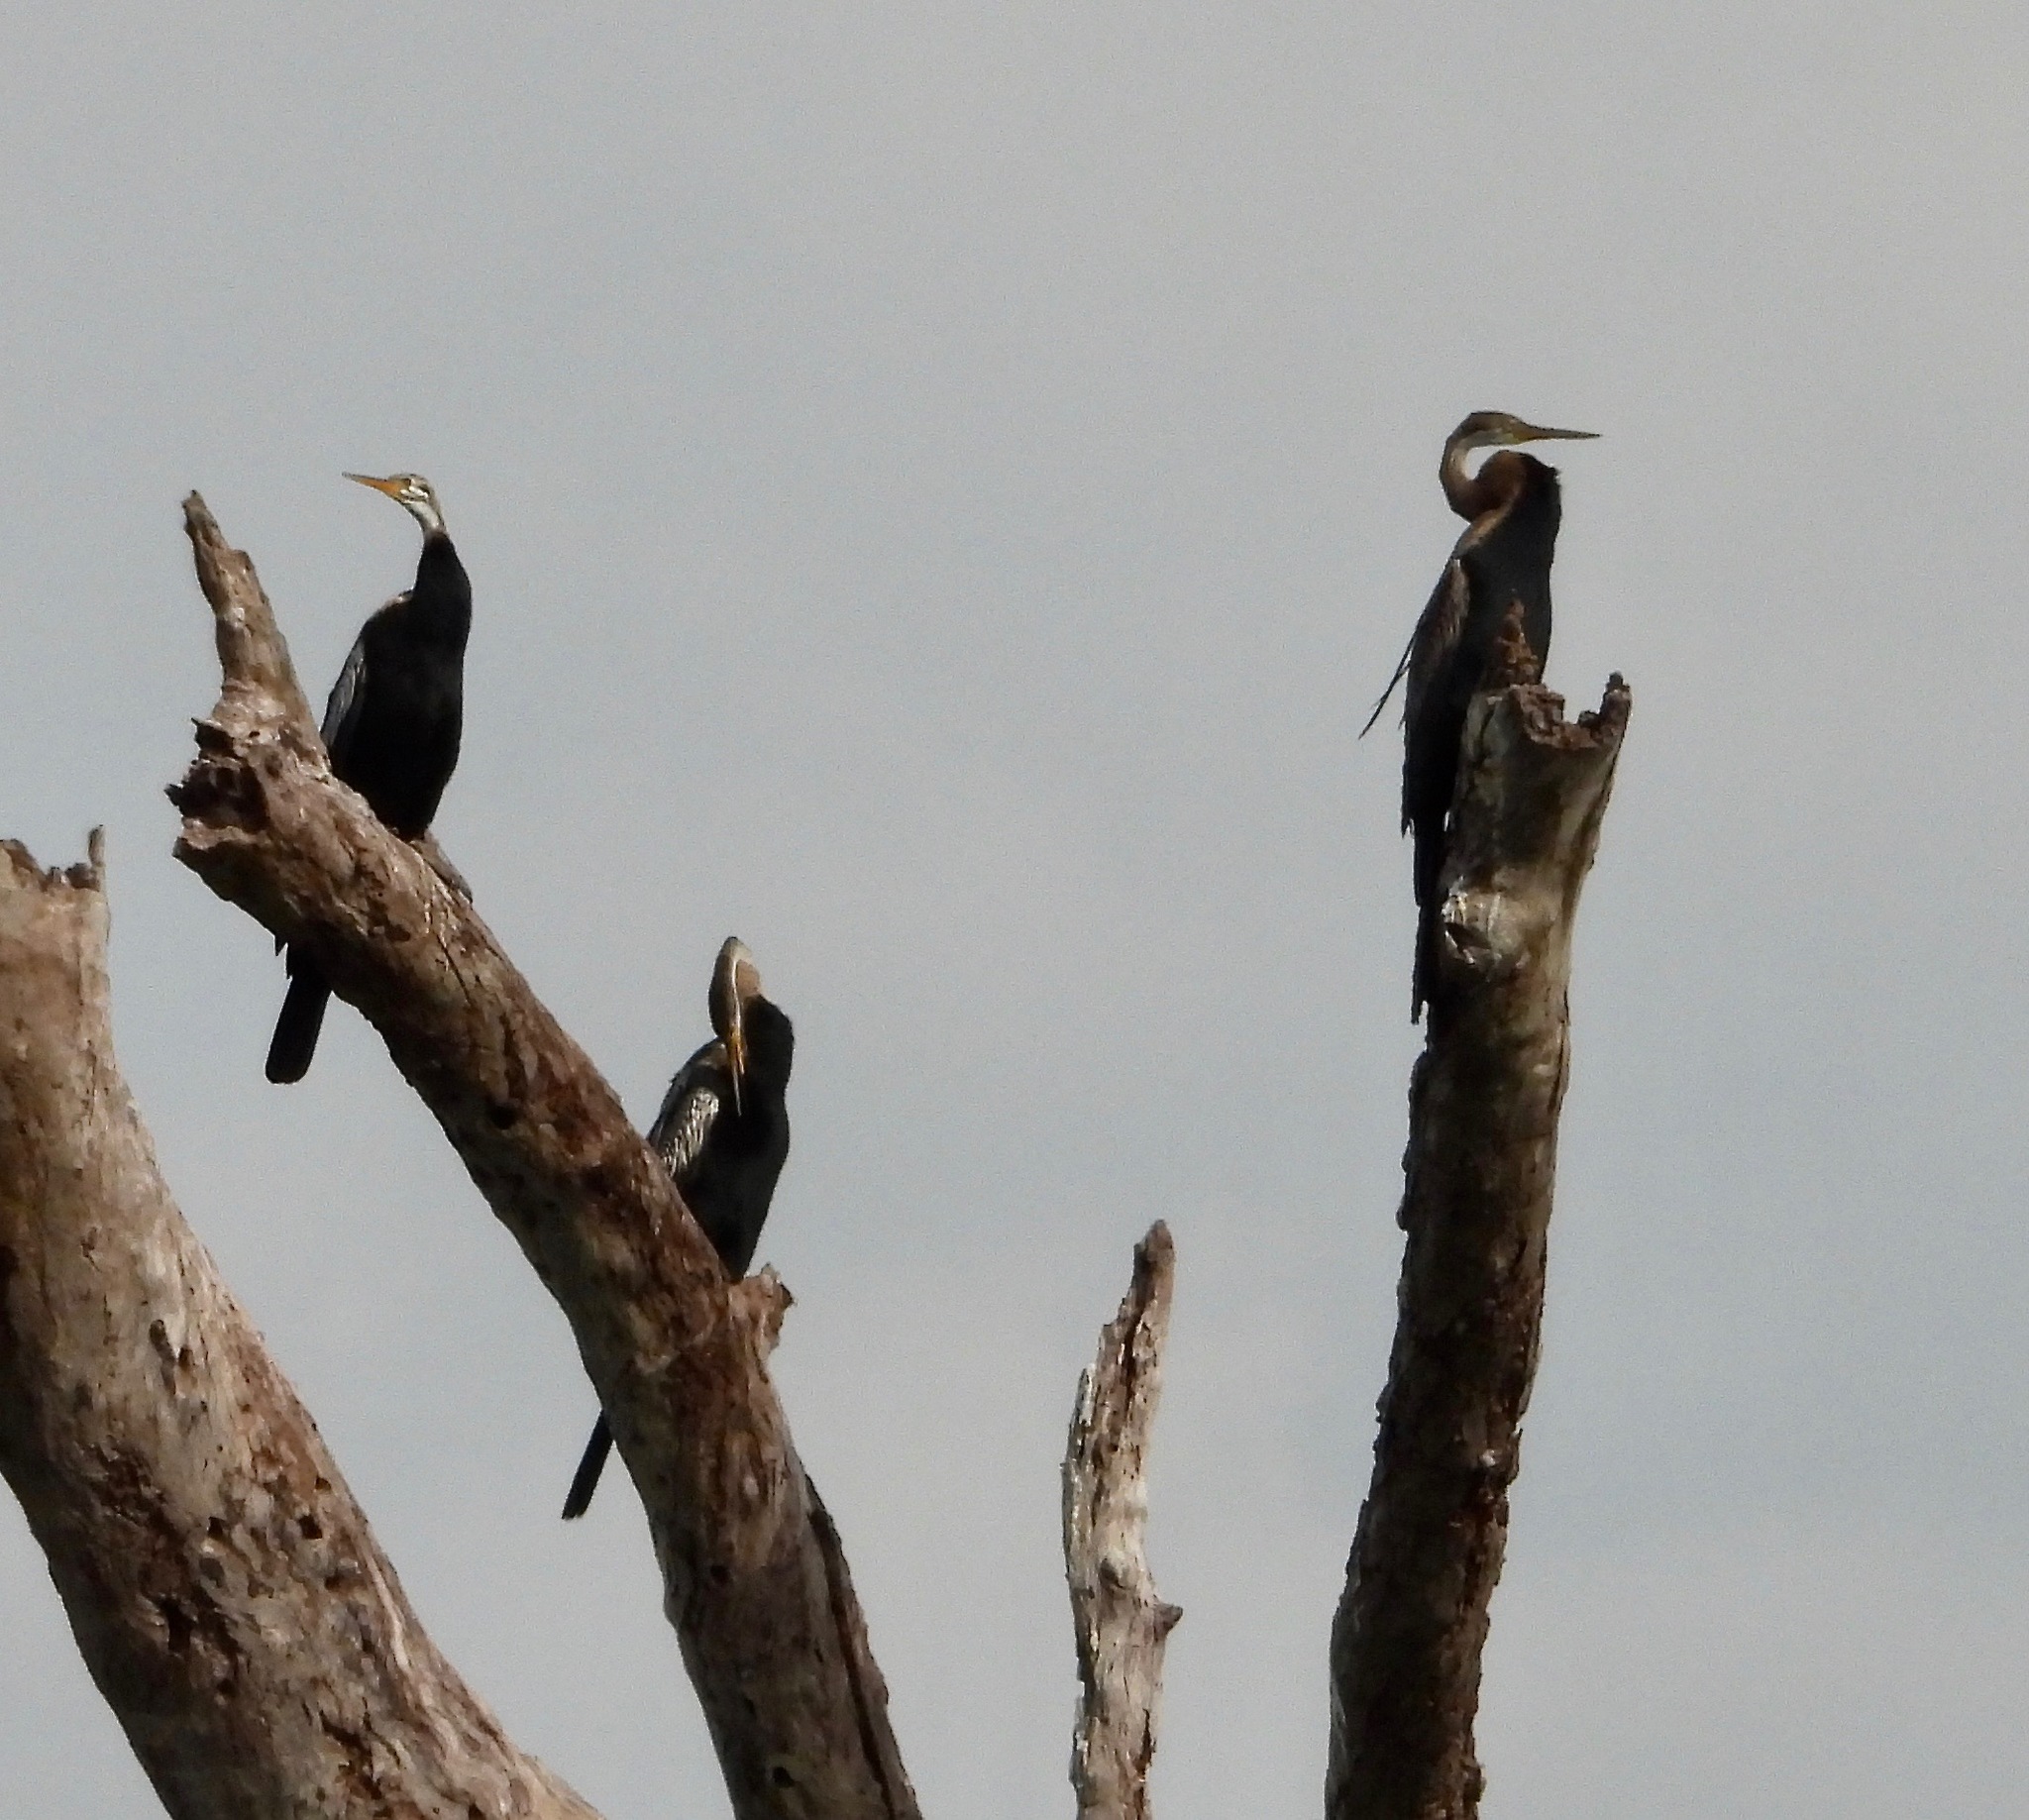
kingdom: Animalia
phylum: Chordata
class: Aves
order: Suliformes
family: Anhingidae
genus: Anhinga
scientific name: Anhinga melanogaster
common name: Oriental darter
